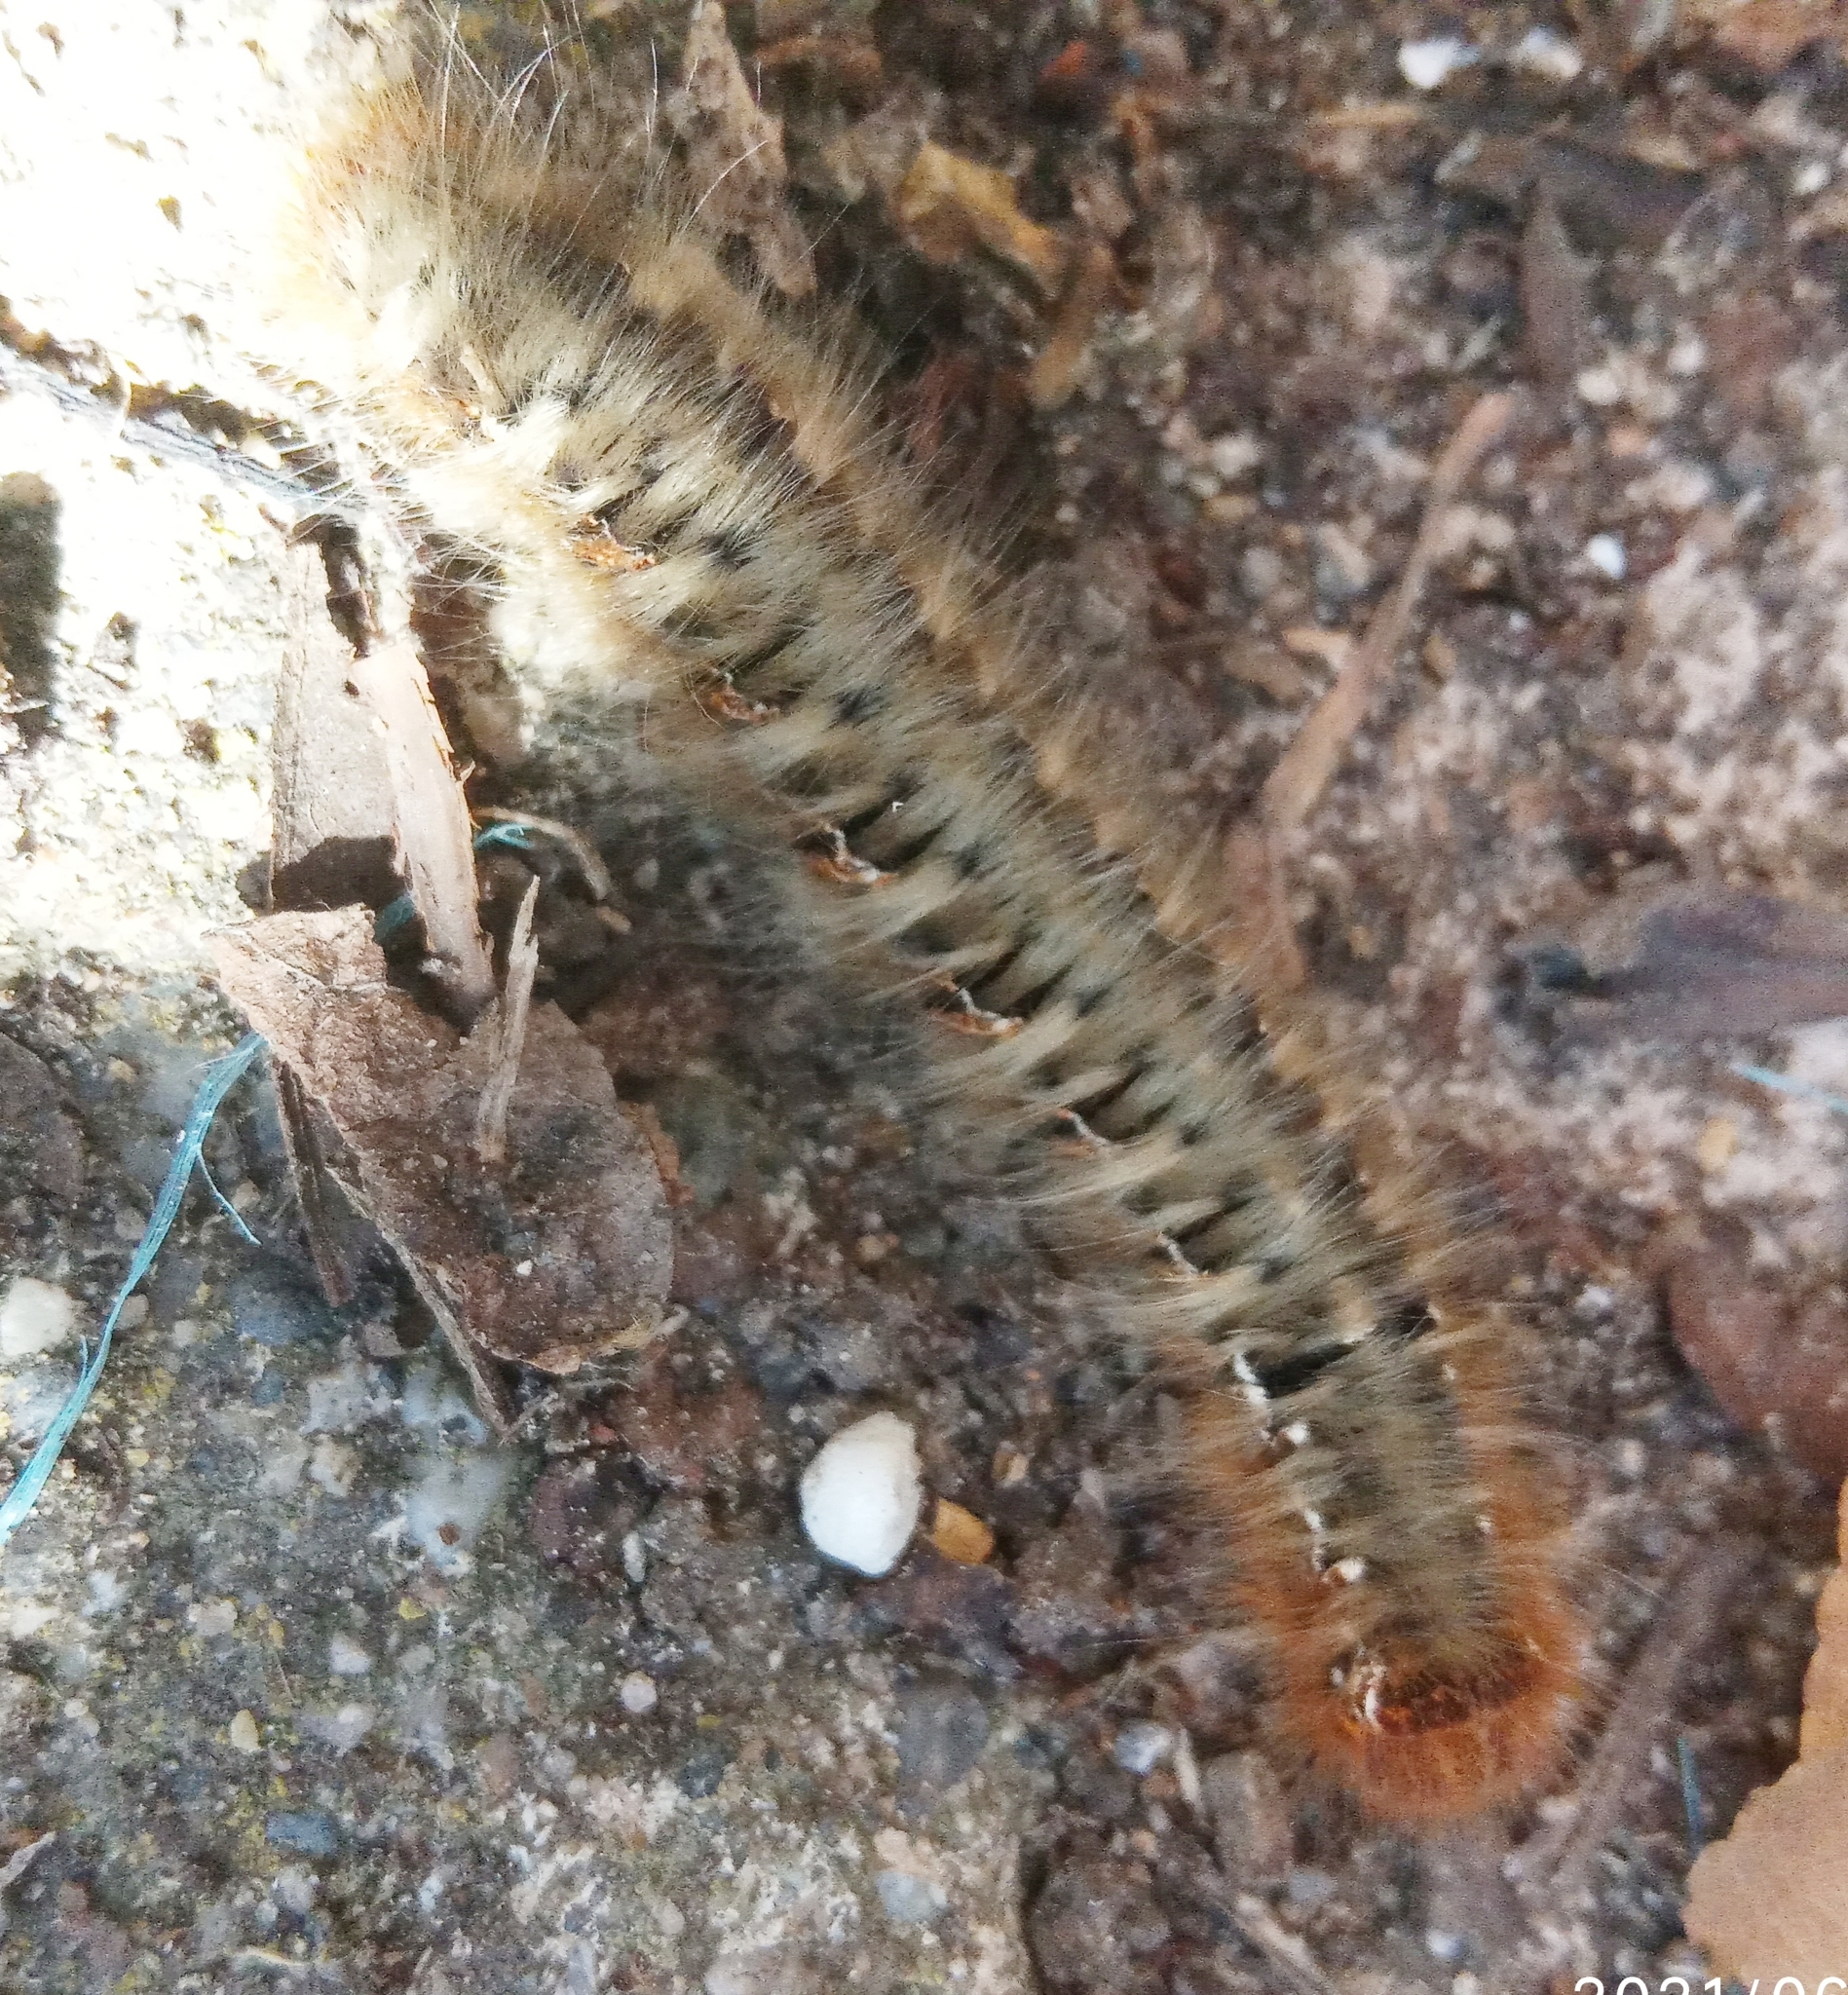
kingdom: Animalia
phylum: Arthropoda
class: Insecta
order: Lepidoptera
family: Lasiocampidae
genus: Lasiocampa
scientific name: Lasiocampa quercus
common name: Oak eggar
